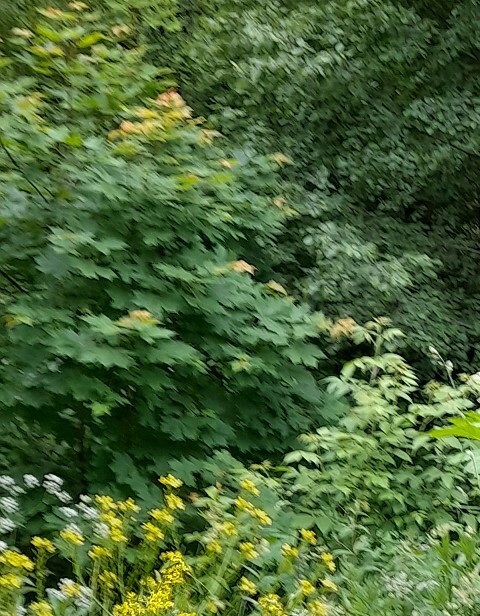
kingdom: Plantae
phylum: Tracheophyta
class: Magnoliopsida
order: Sapindales
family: Sapindaceae
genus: Acer
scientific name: Acer platanoides
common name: Norway maple
